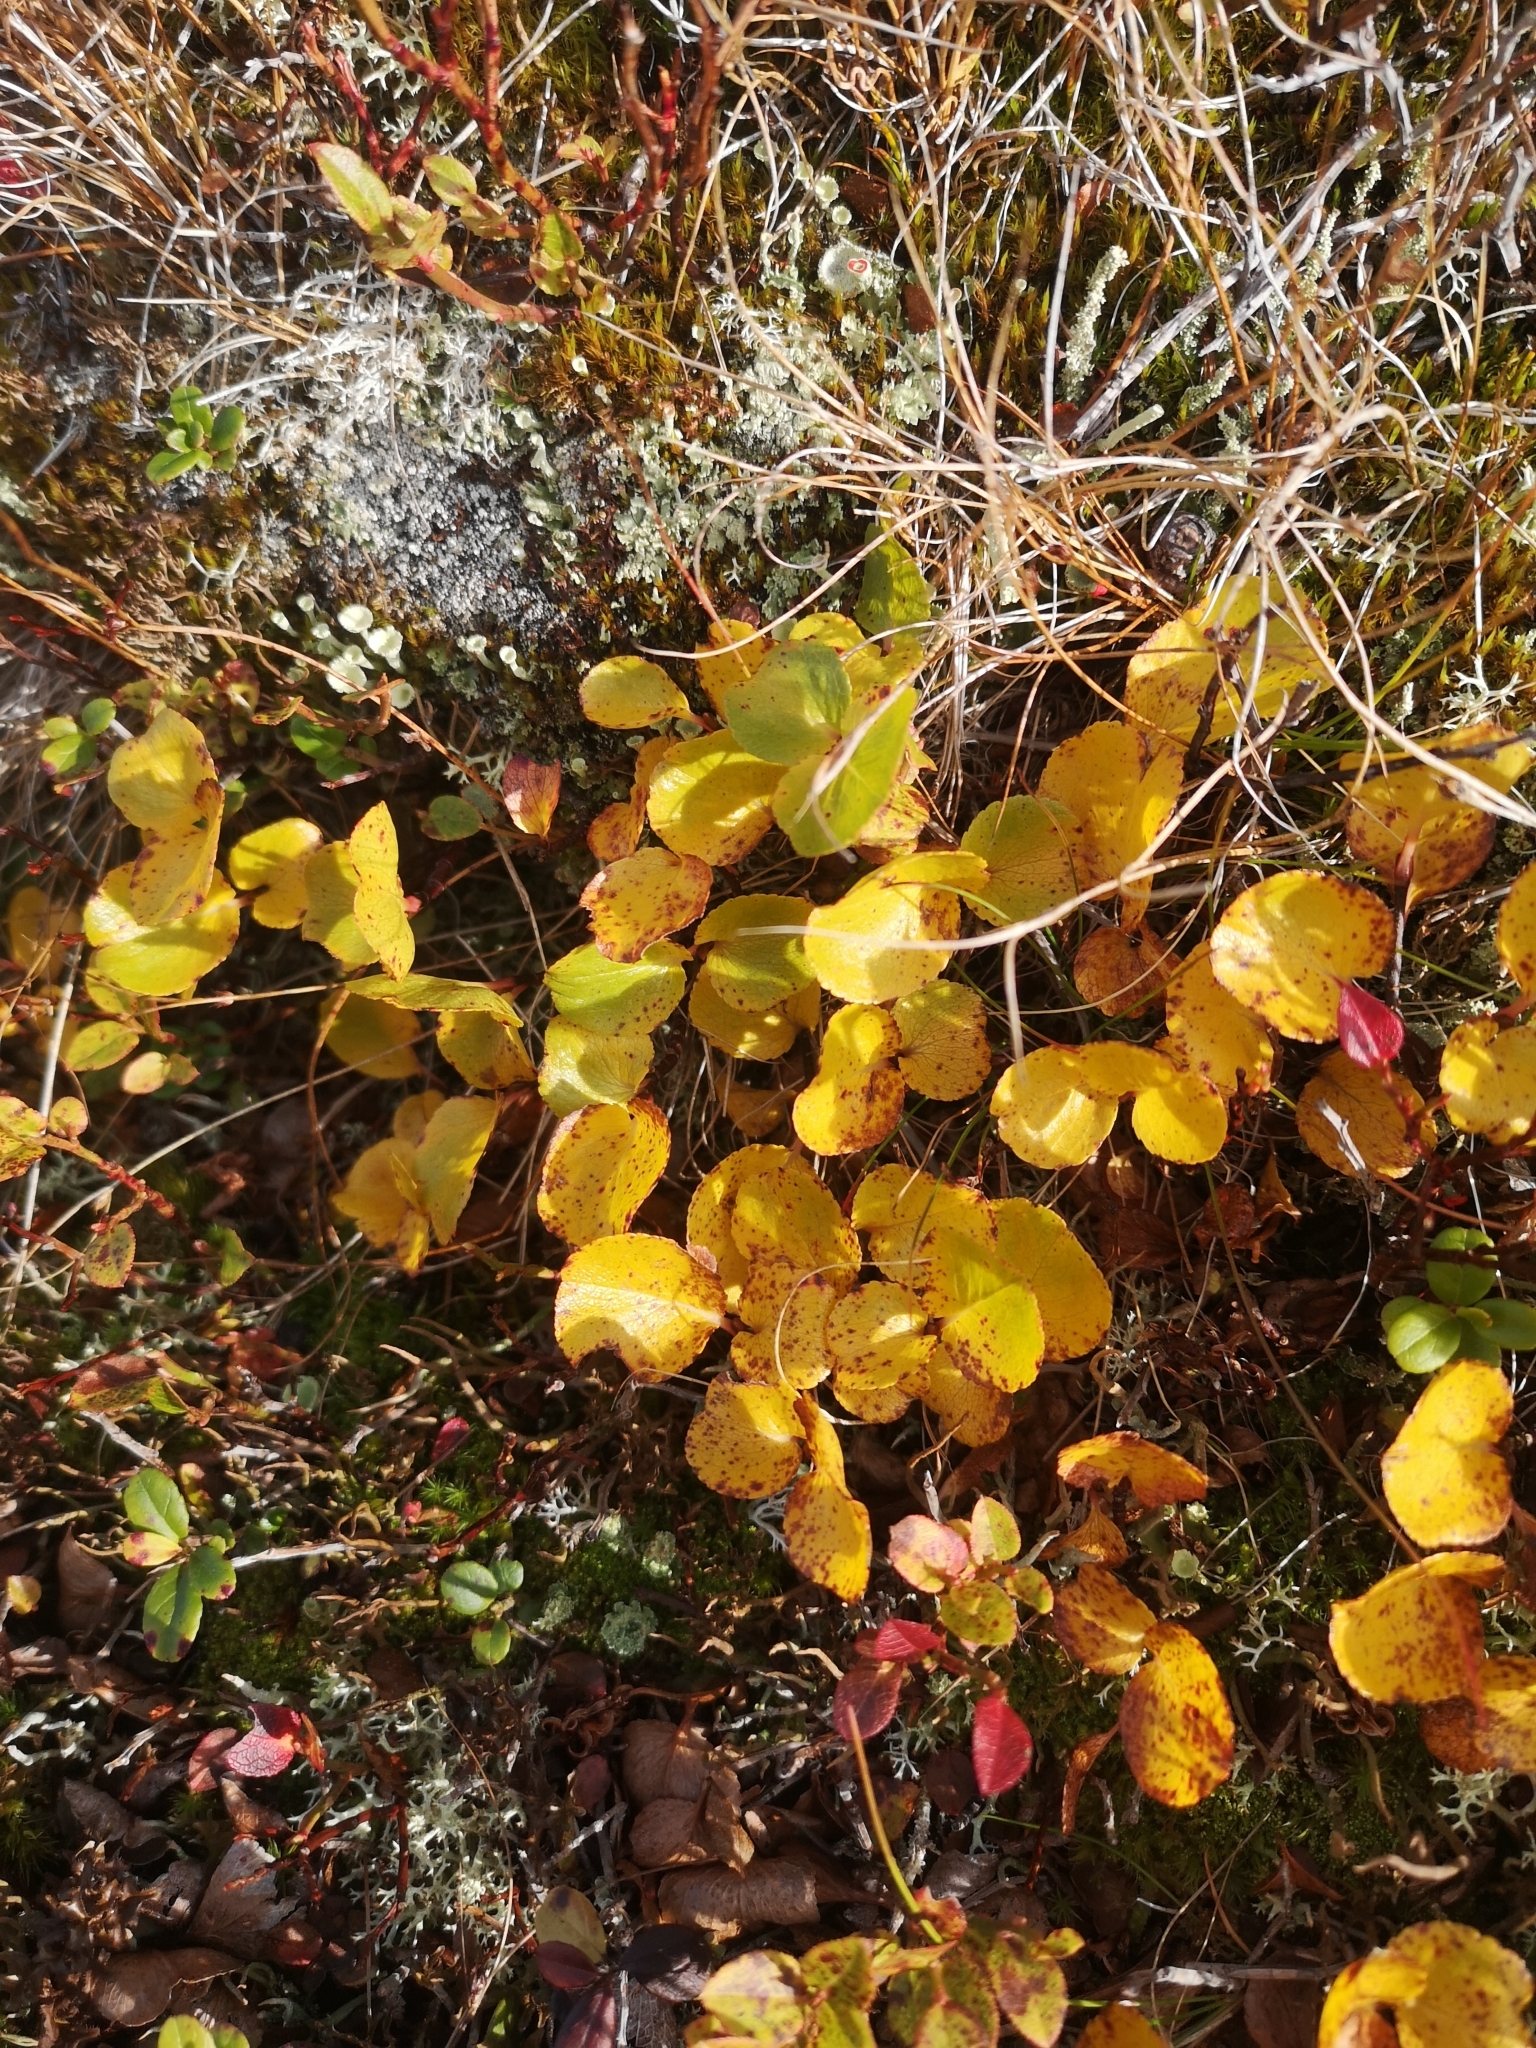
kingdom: Plantae
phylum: Tracheophyta
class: Magnoliopsida
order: Fagales
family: Betulaceae
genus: Betula
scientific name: Betula nana
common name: Arctic dwarf birch
